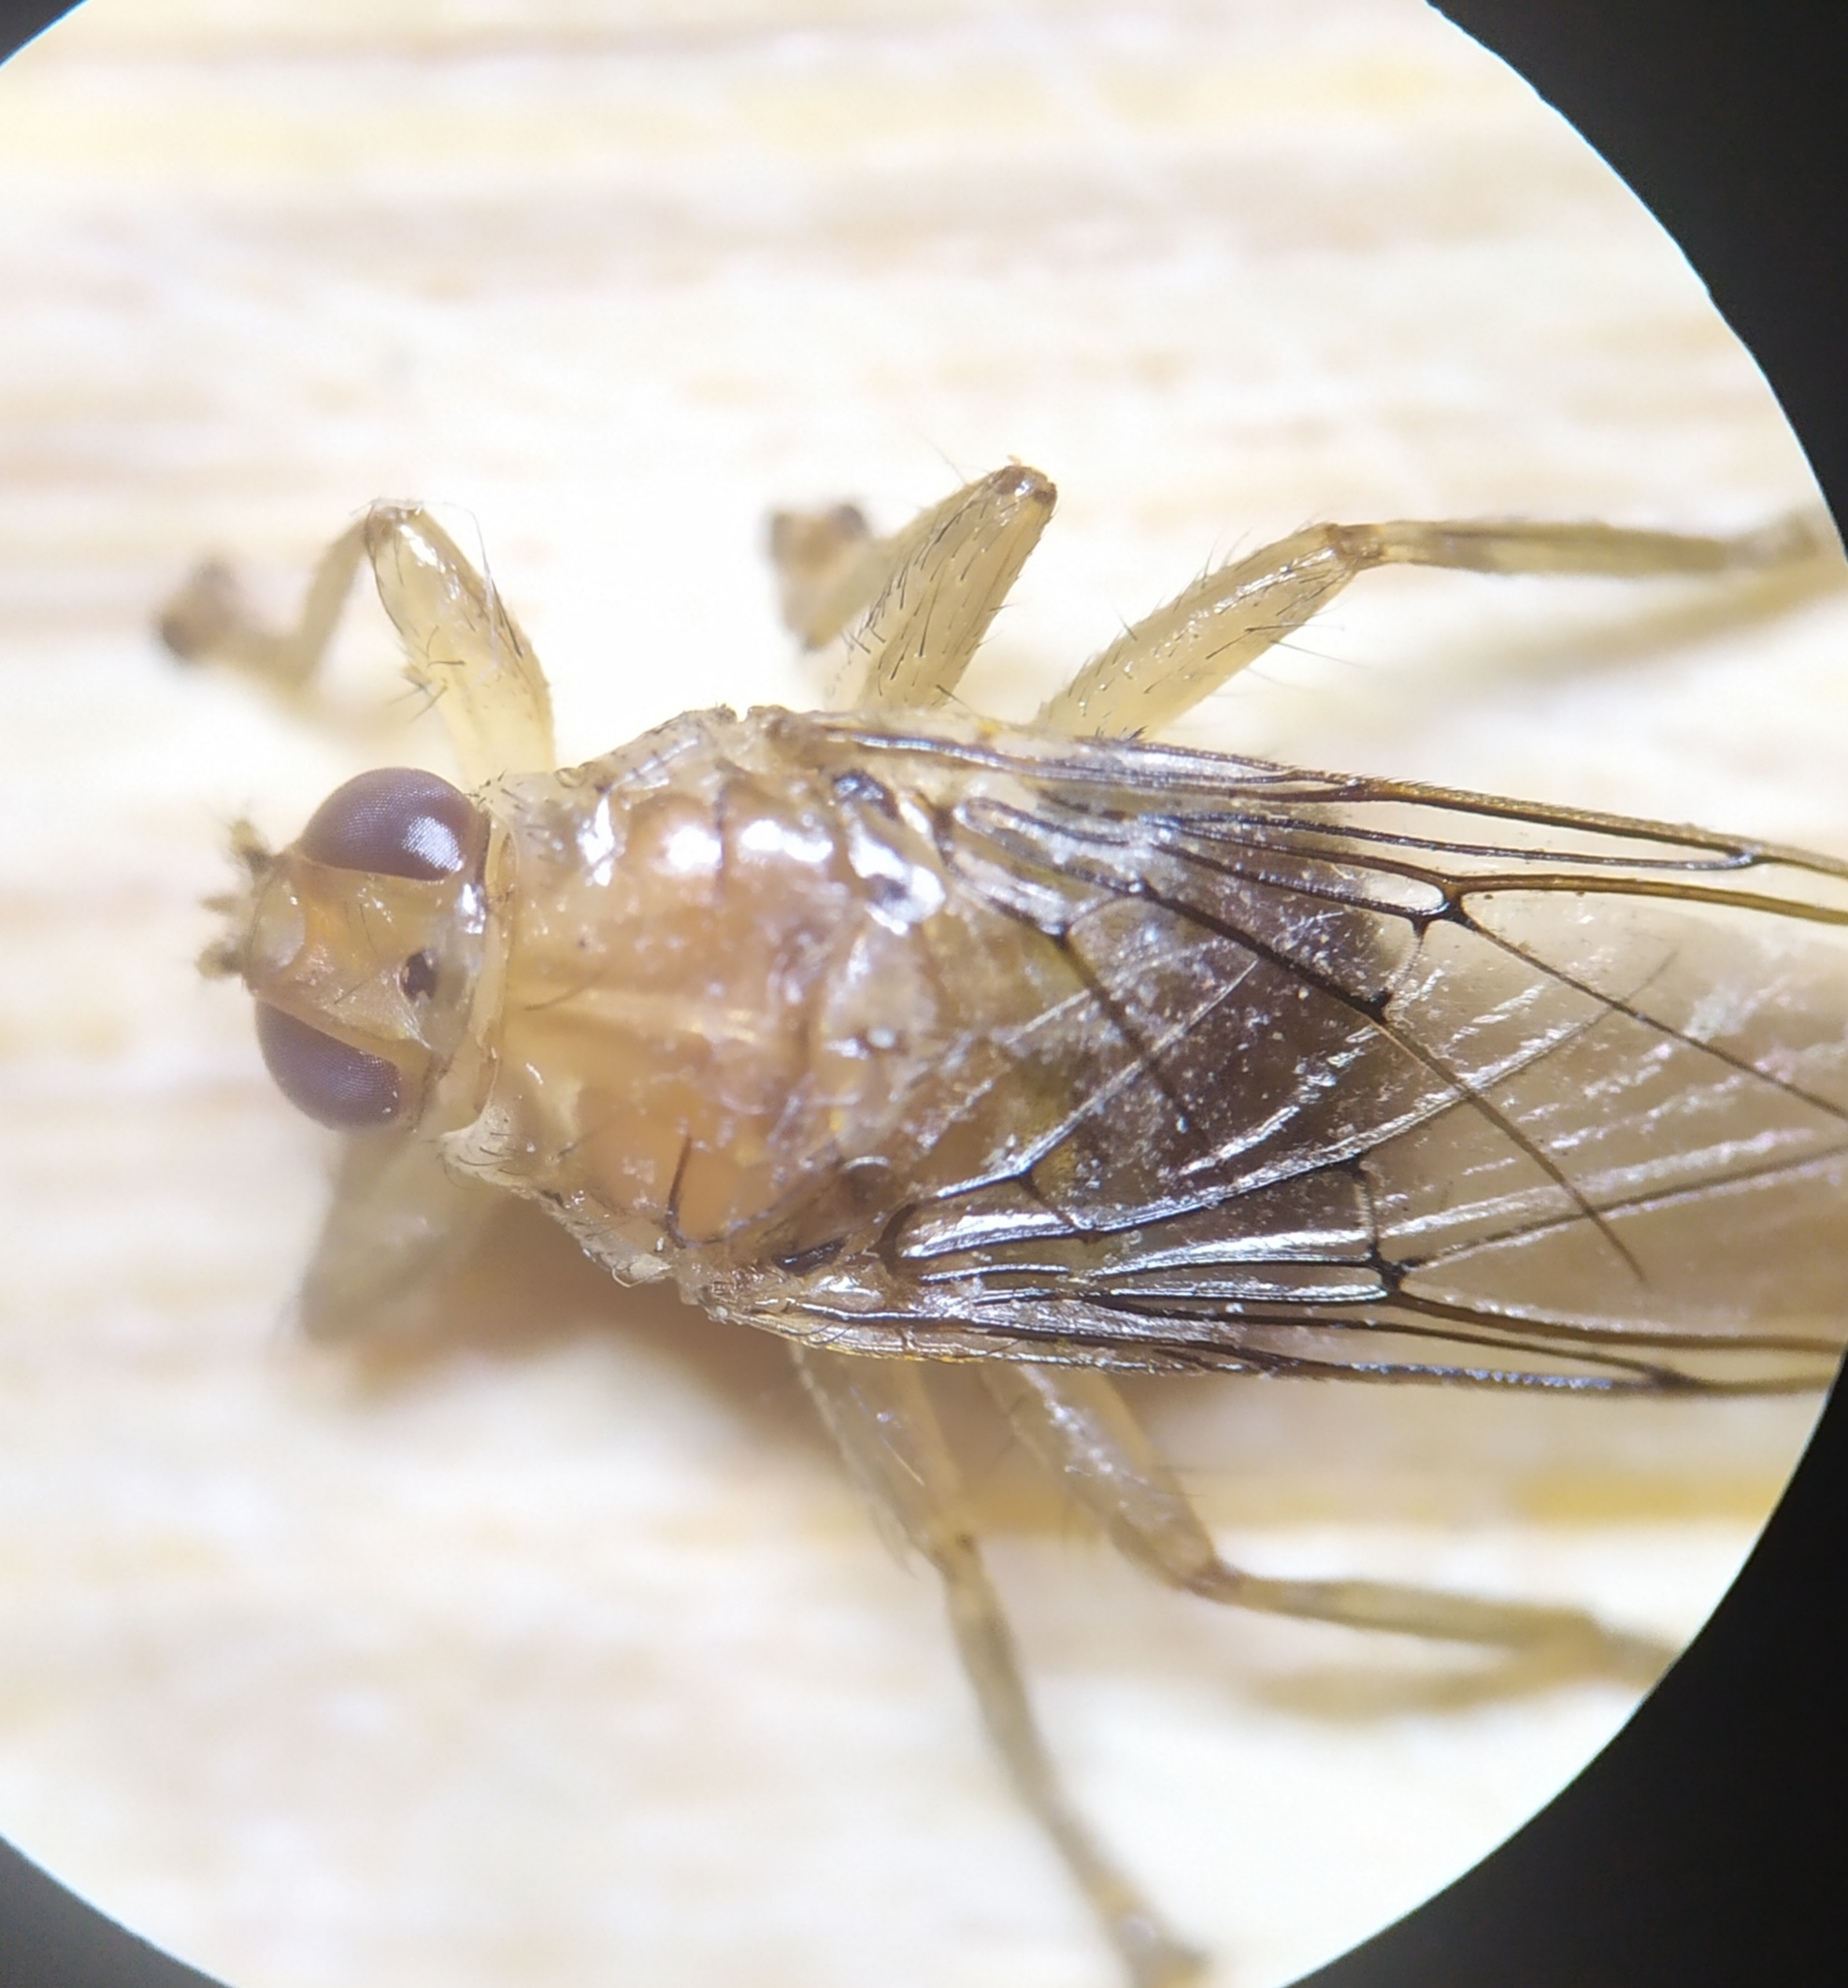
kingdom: Animalia
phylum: Arthropoda
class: Insecta
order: Diptera
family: Hippoboscidae
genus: Ornithomya
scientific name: Ornithomya avicularia
